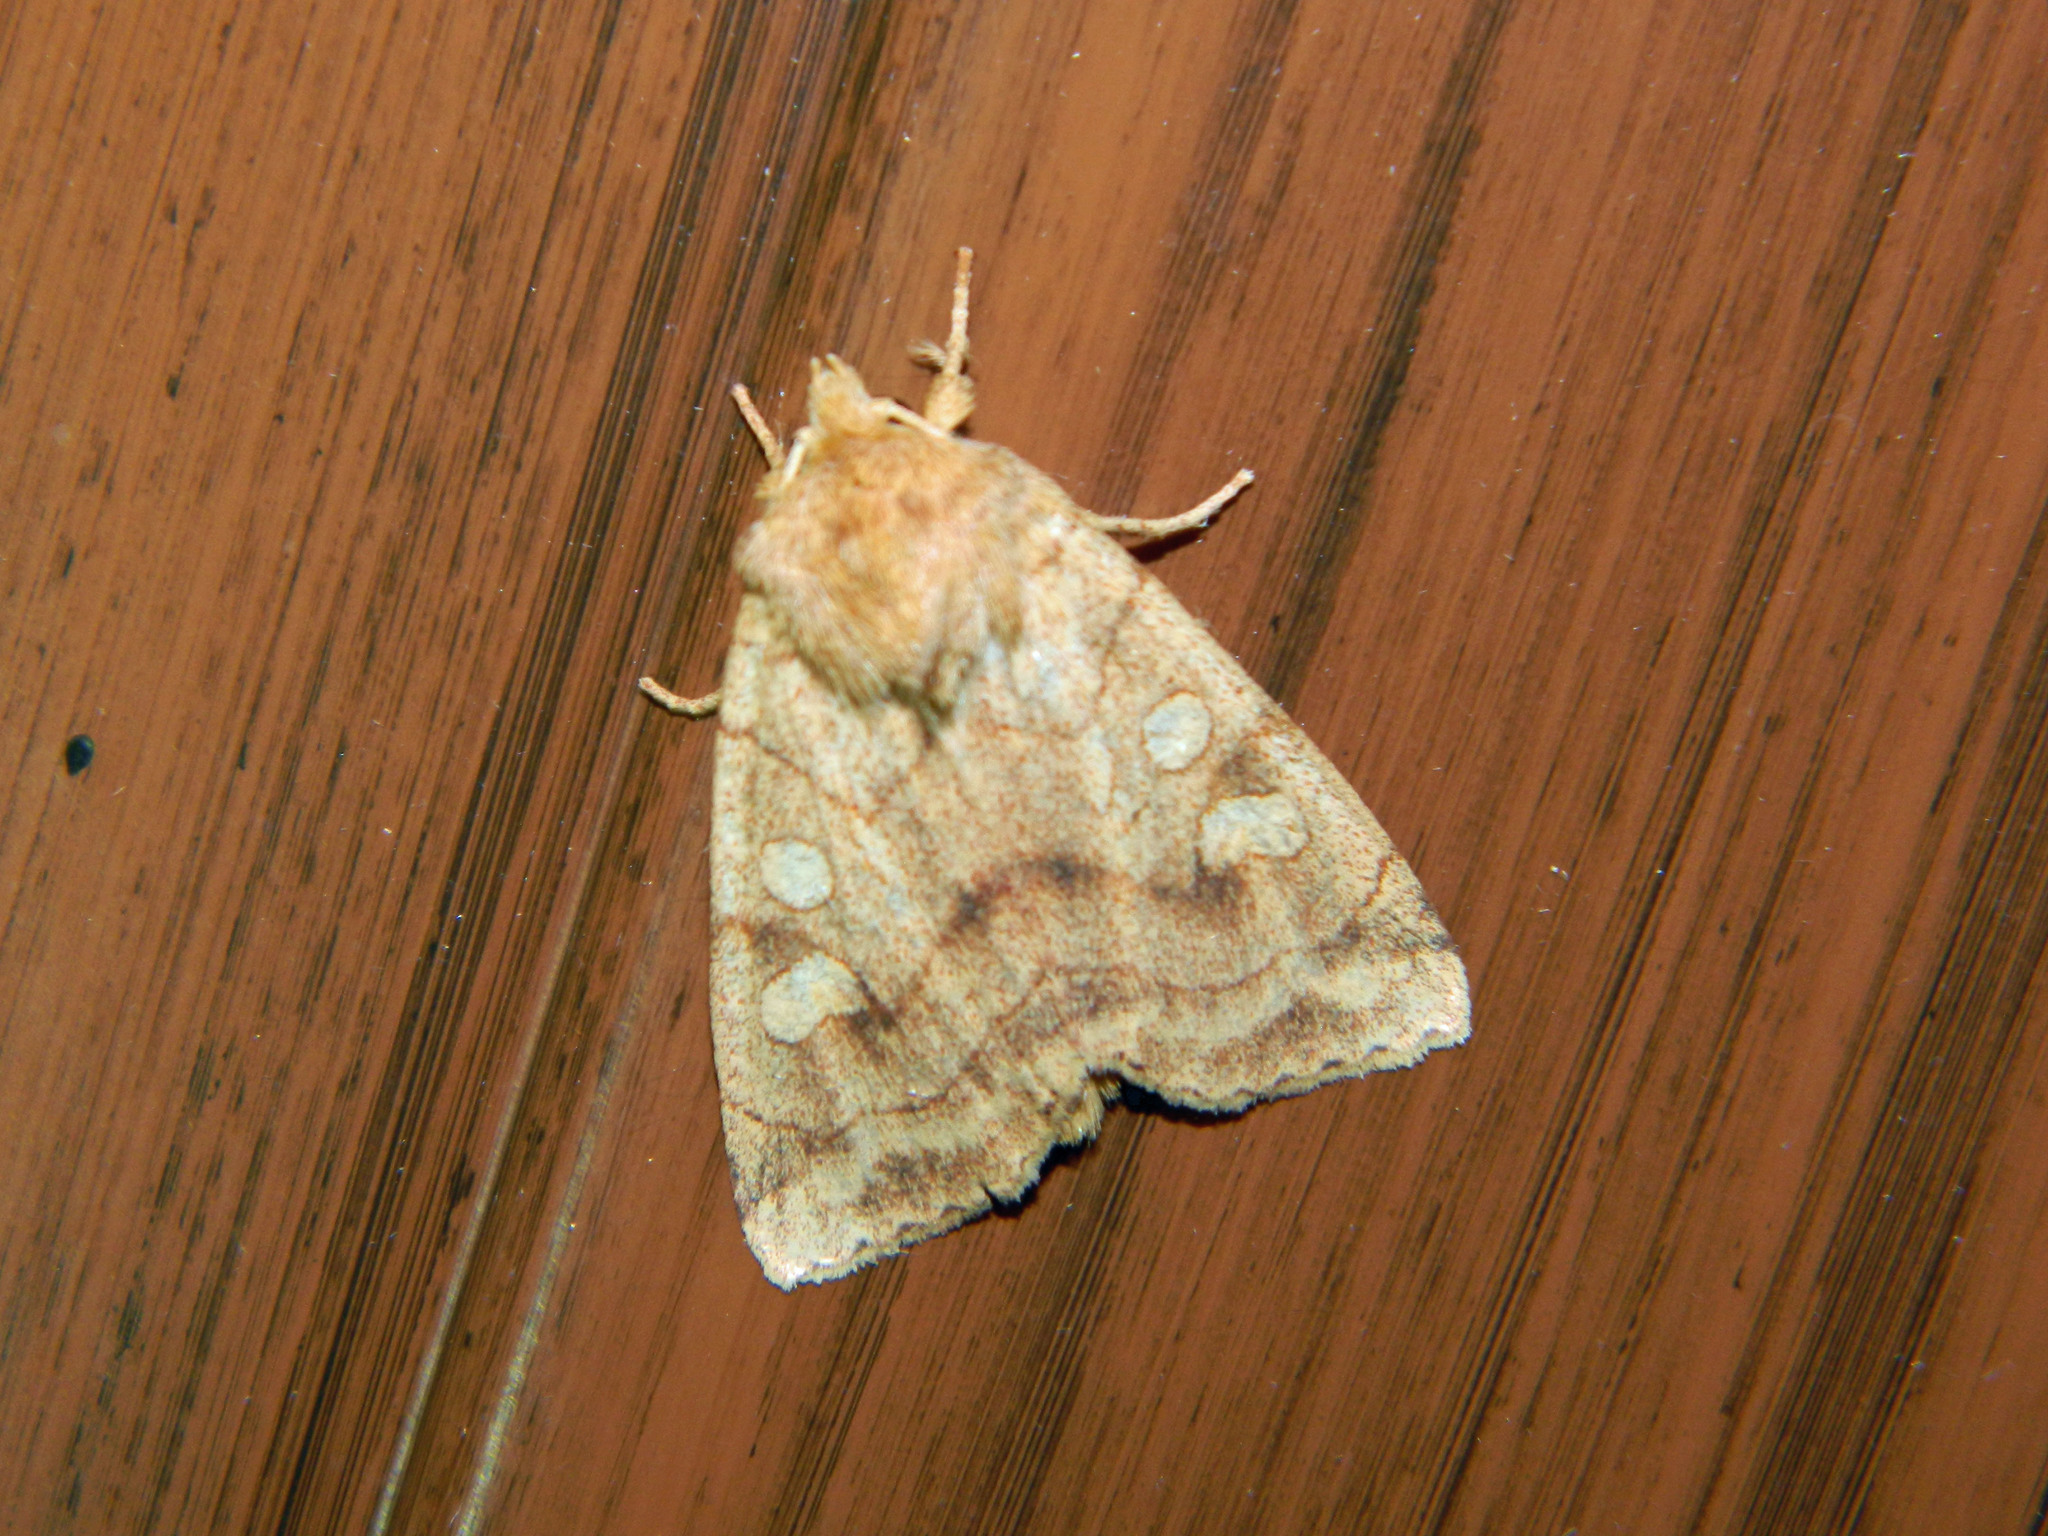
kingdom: Animalia
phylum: Arthropoda
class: Insecta
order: Lepidoptera
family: Noctuidae
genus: Enargia
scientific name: Enargia decolor
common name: Aspen twoleaf tier moth
